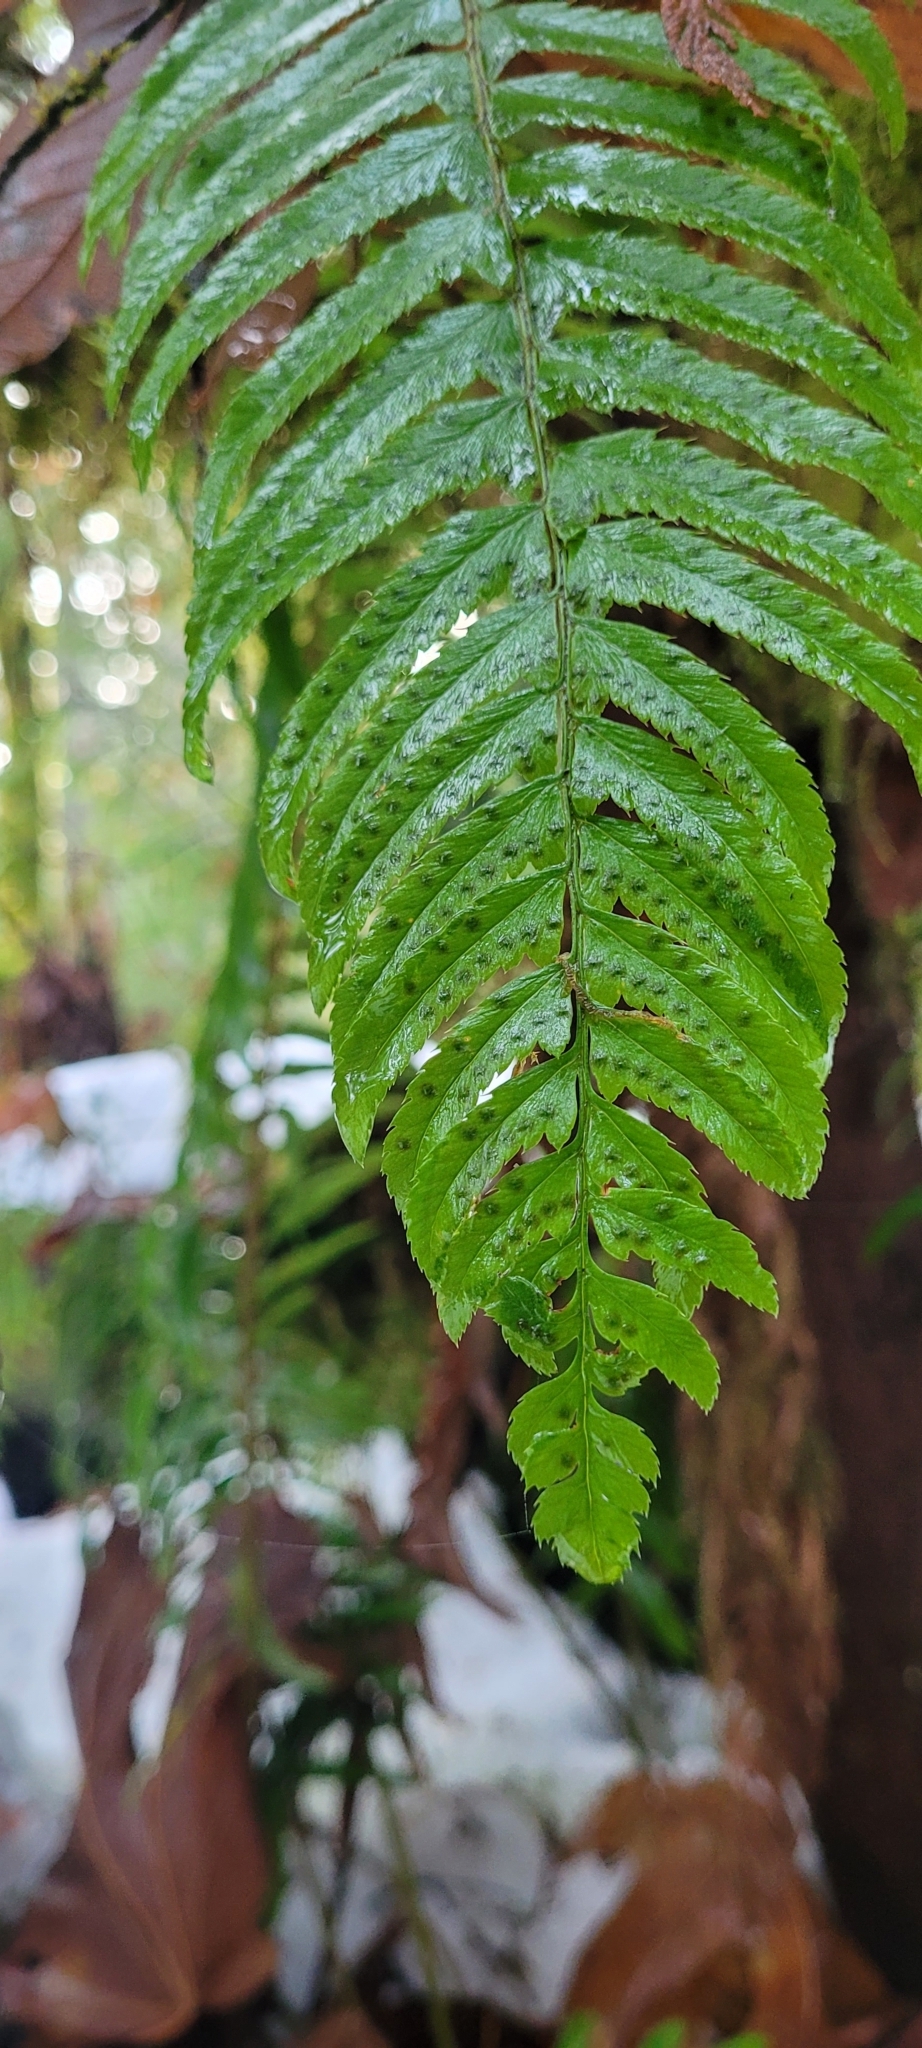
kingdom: Plantae
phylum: Tracheophyta
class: Polypodiopsida
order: Polypodiales
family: Dryopteridaceae
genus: Polystichum
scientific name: Polystichum munitum
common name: Western sword-fern
